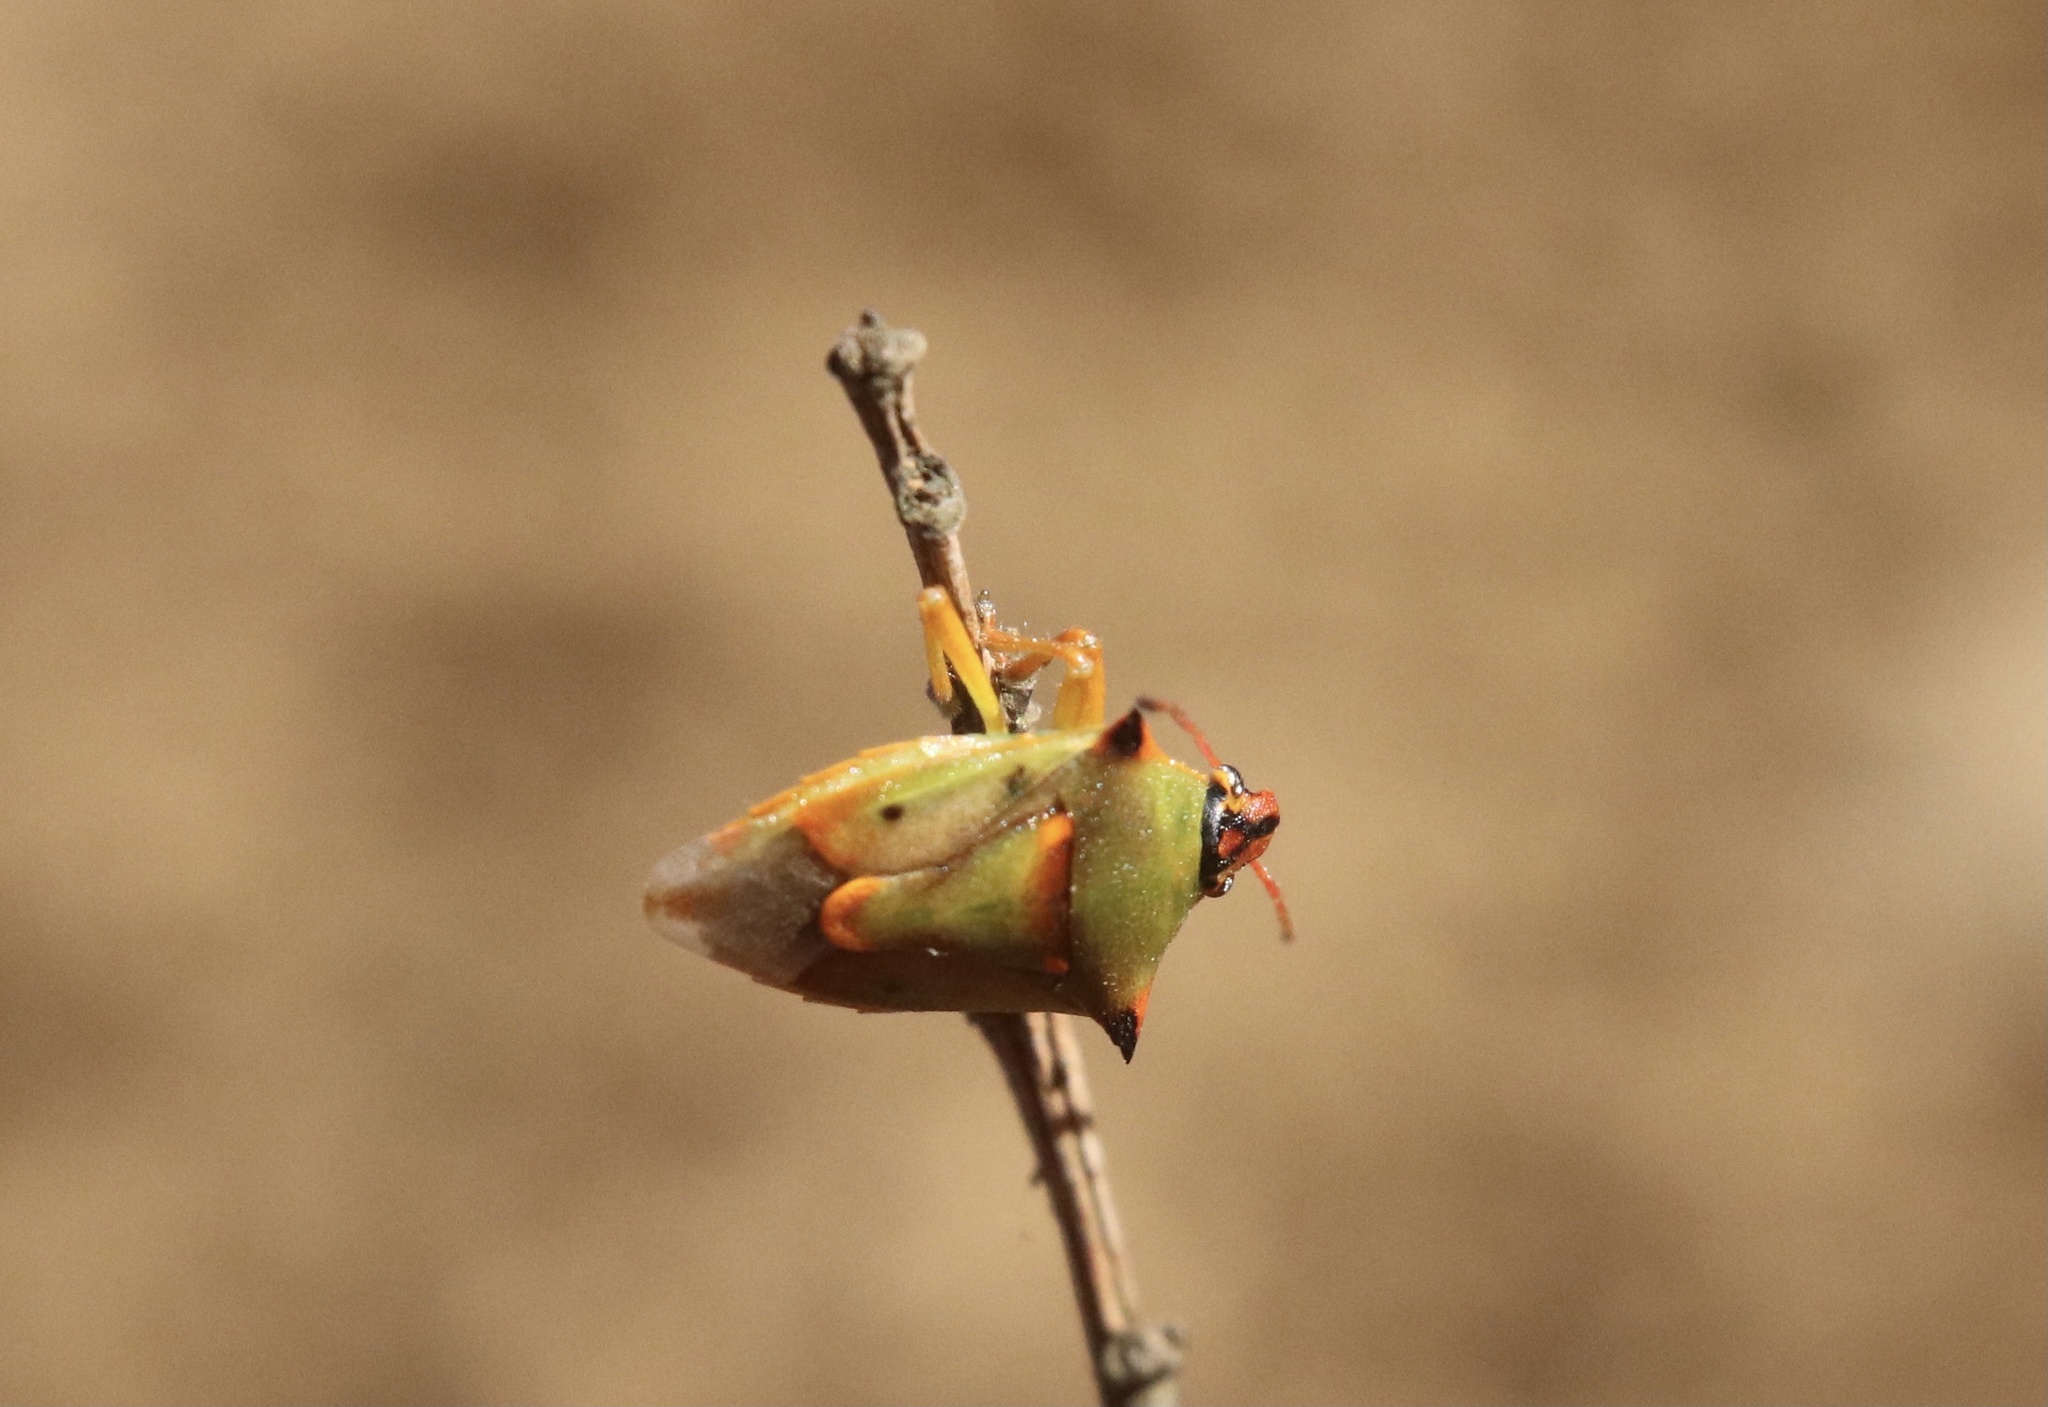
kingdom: Animalia
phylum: Arthropoda
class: Insecta
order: Hemiptera
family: Pentatomidae
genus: Tylospilus
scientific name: Tylospilus
